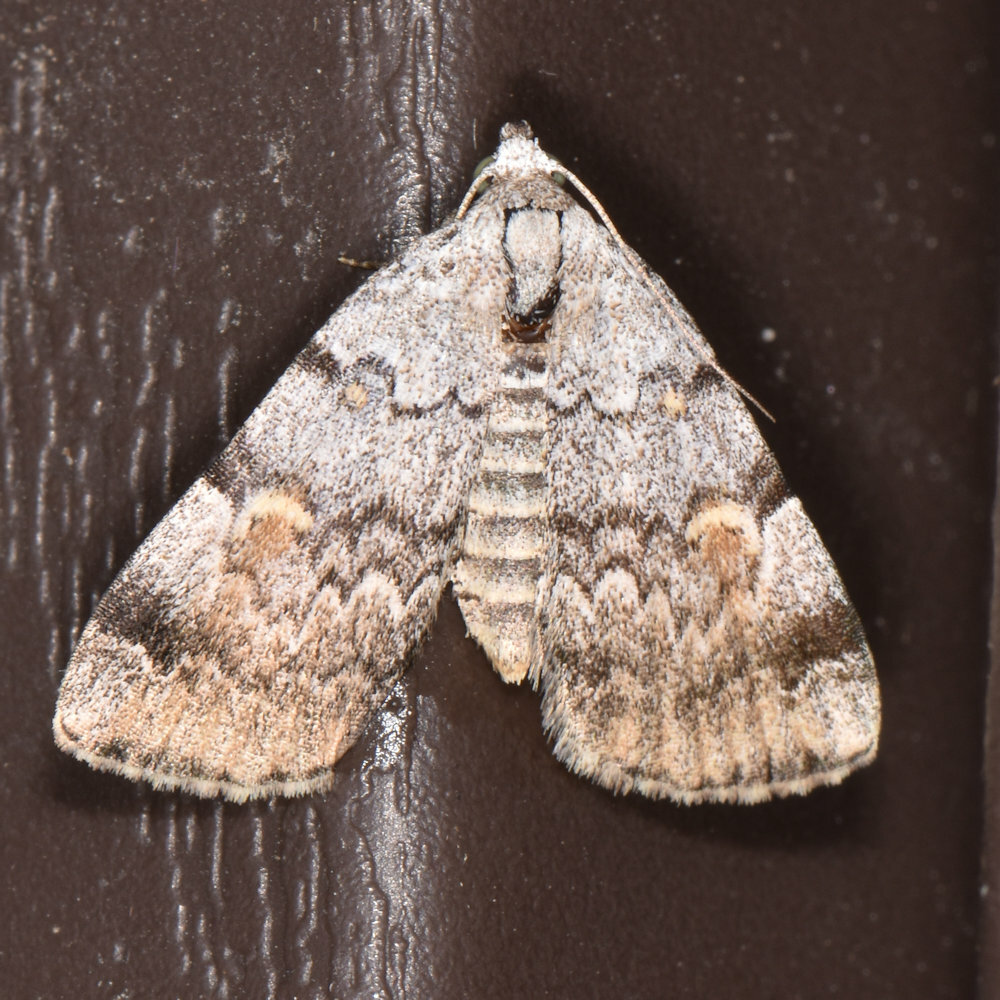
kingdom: Animalia
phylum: Arthropoda
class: Insecta
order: Lepidoptera
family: Erebidae
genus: Idia
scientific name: Idia americalis
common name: American idia moth
